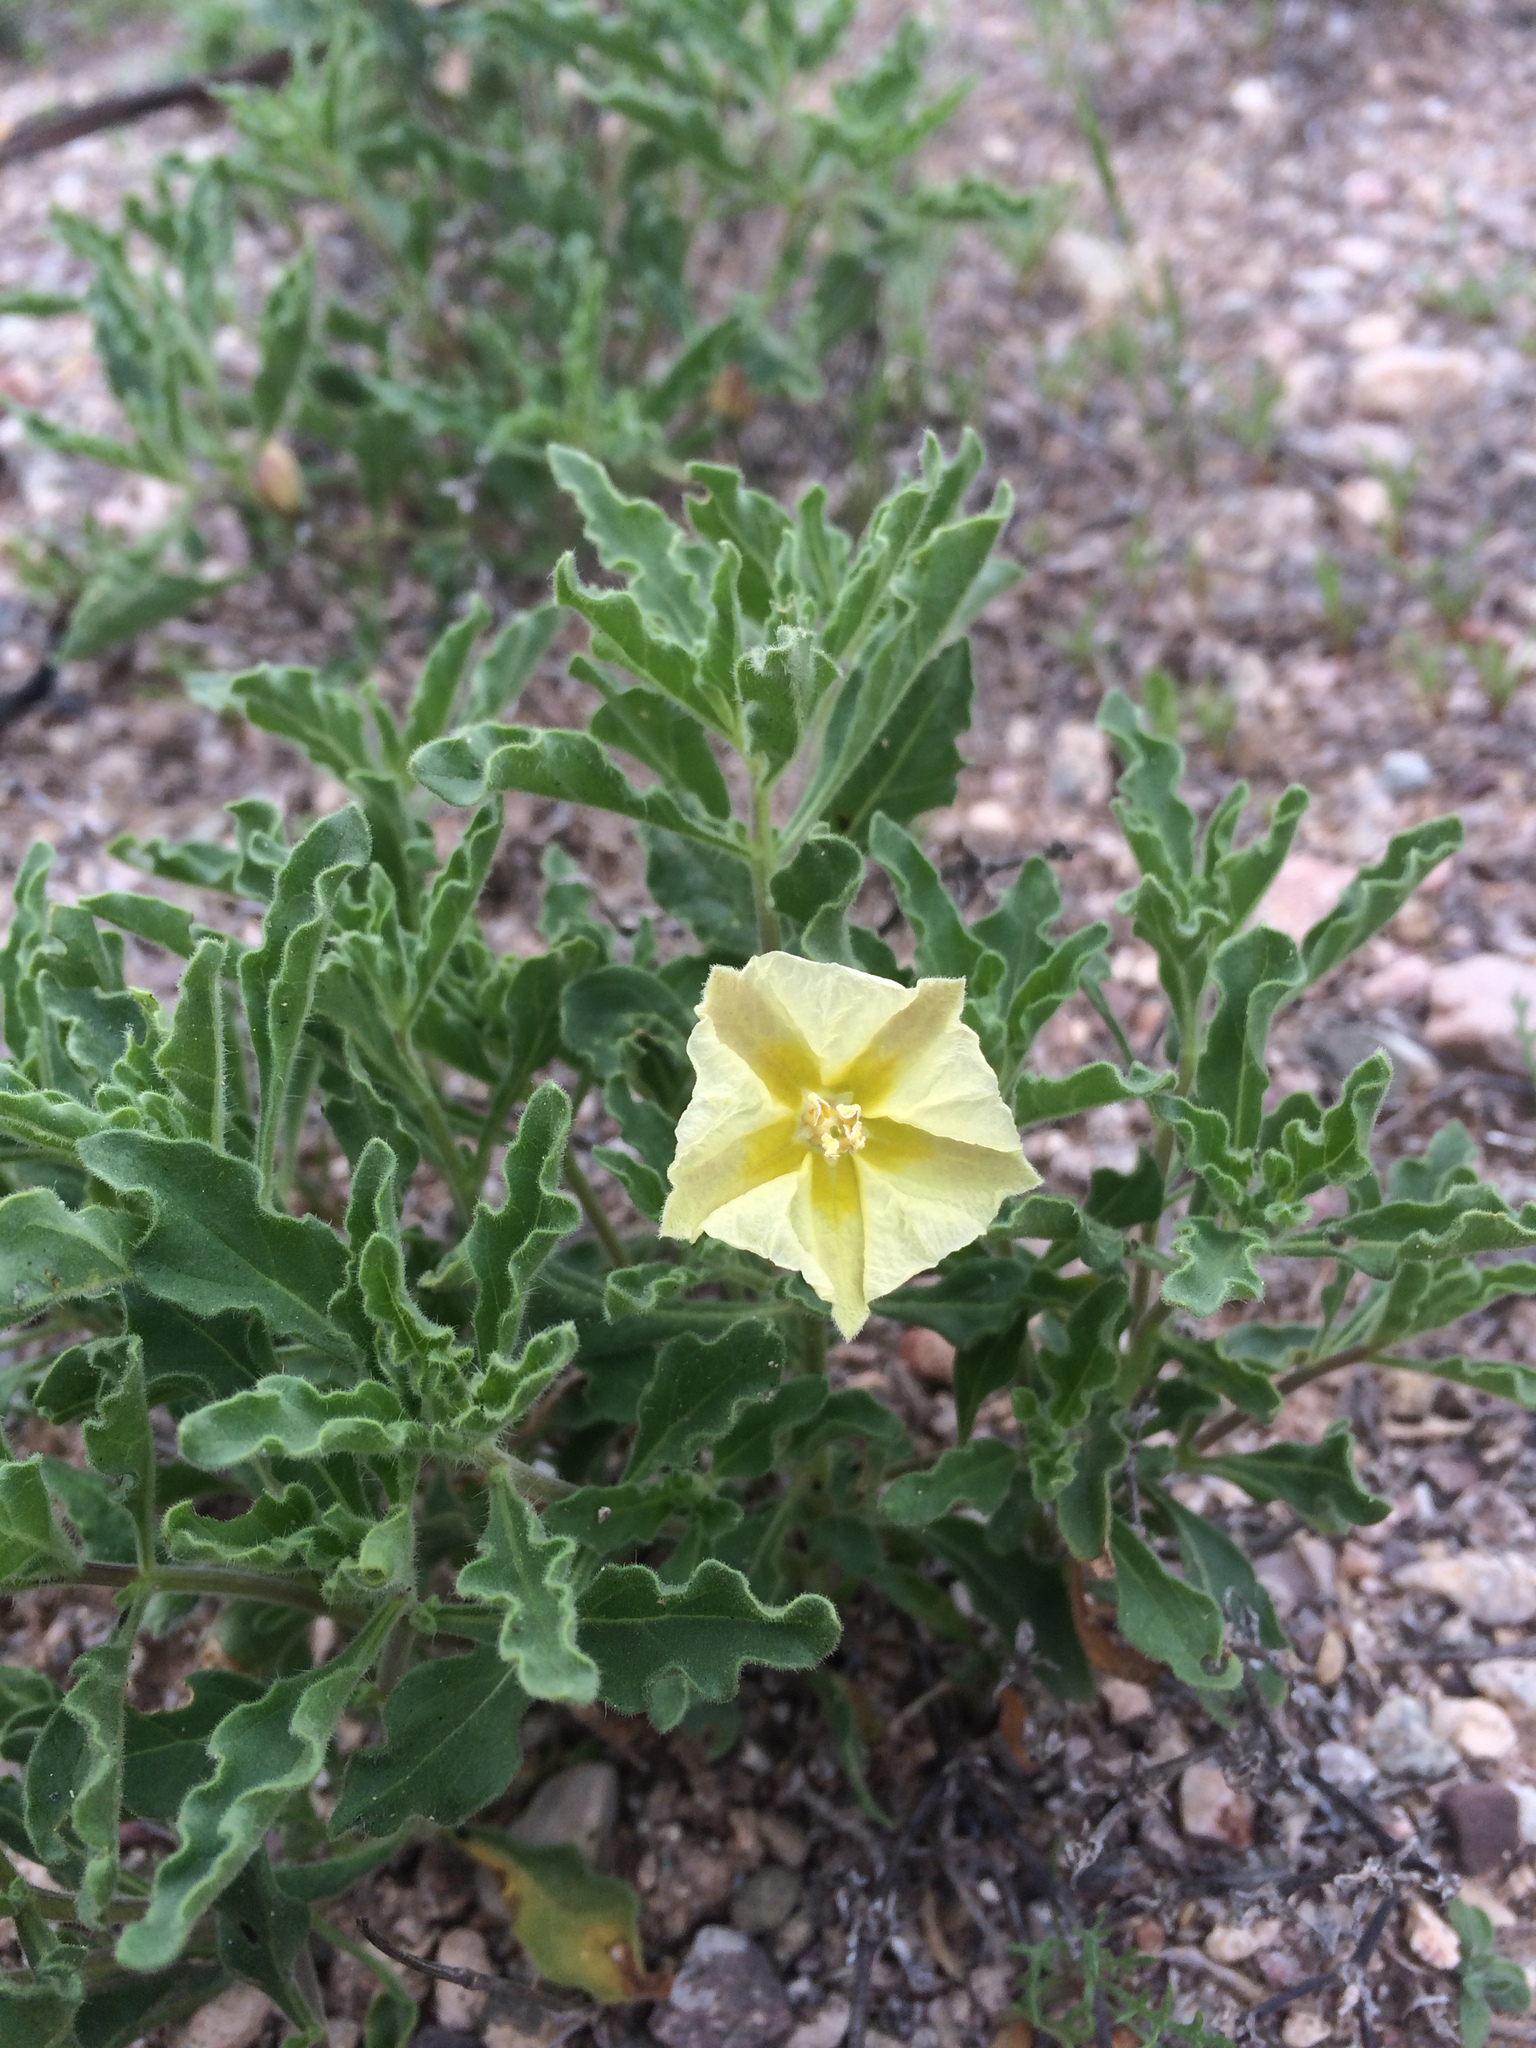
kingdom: Plantae
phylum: Tracheophyta
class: Magnoliopsida
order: Solanales
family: Solanaceae
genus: Chamaesaracha
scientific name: Chamaesaracha sordida
